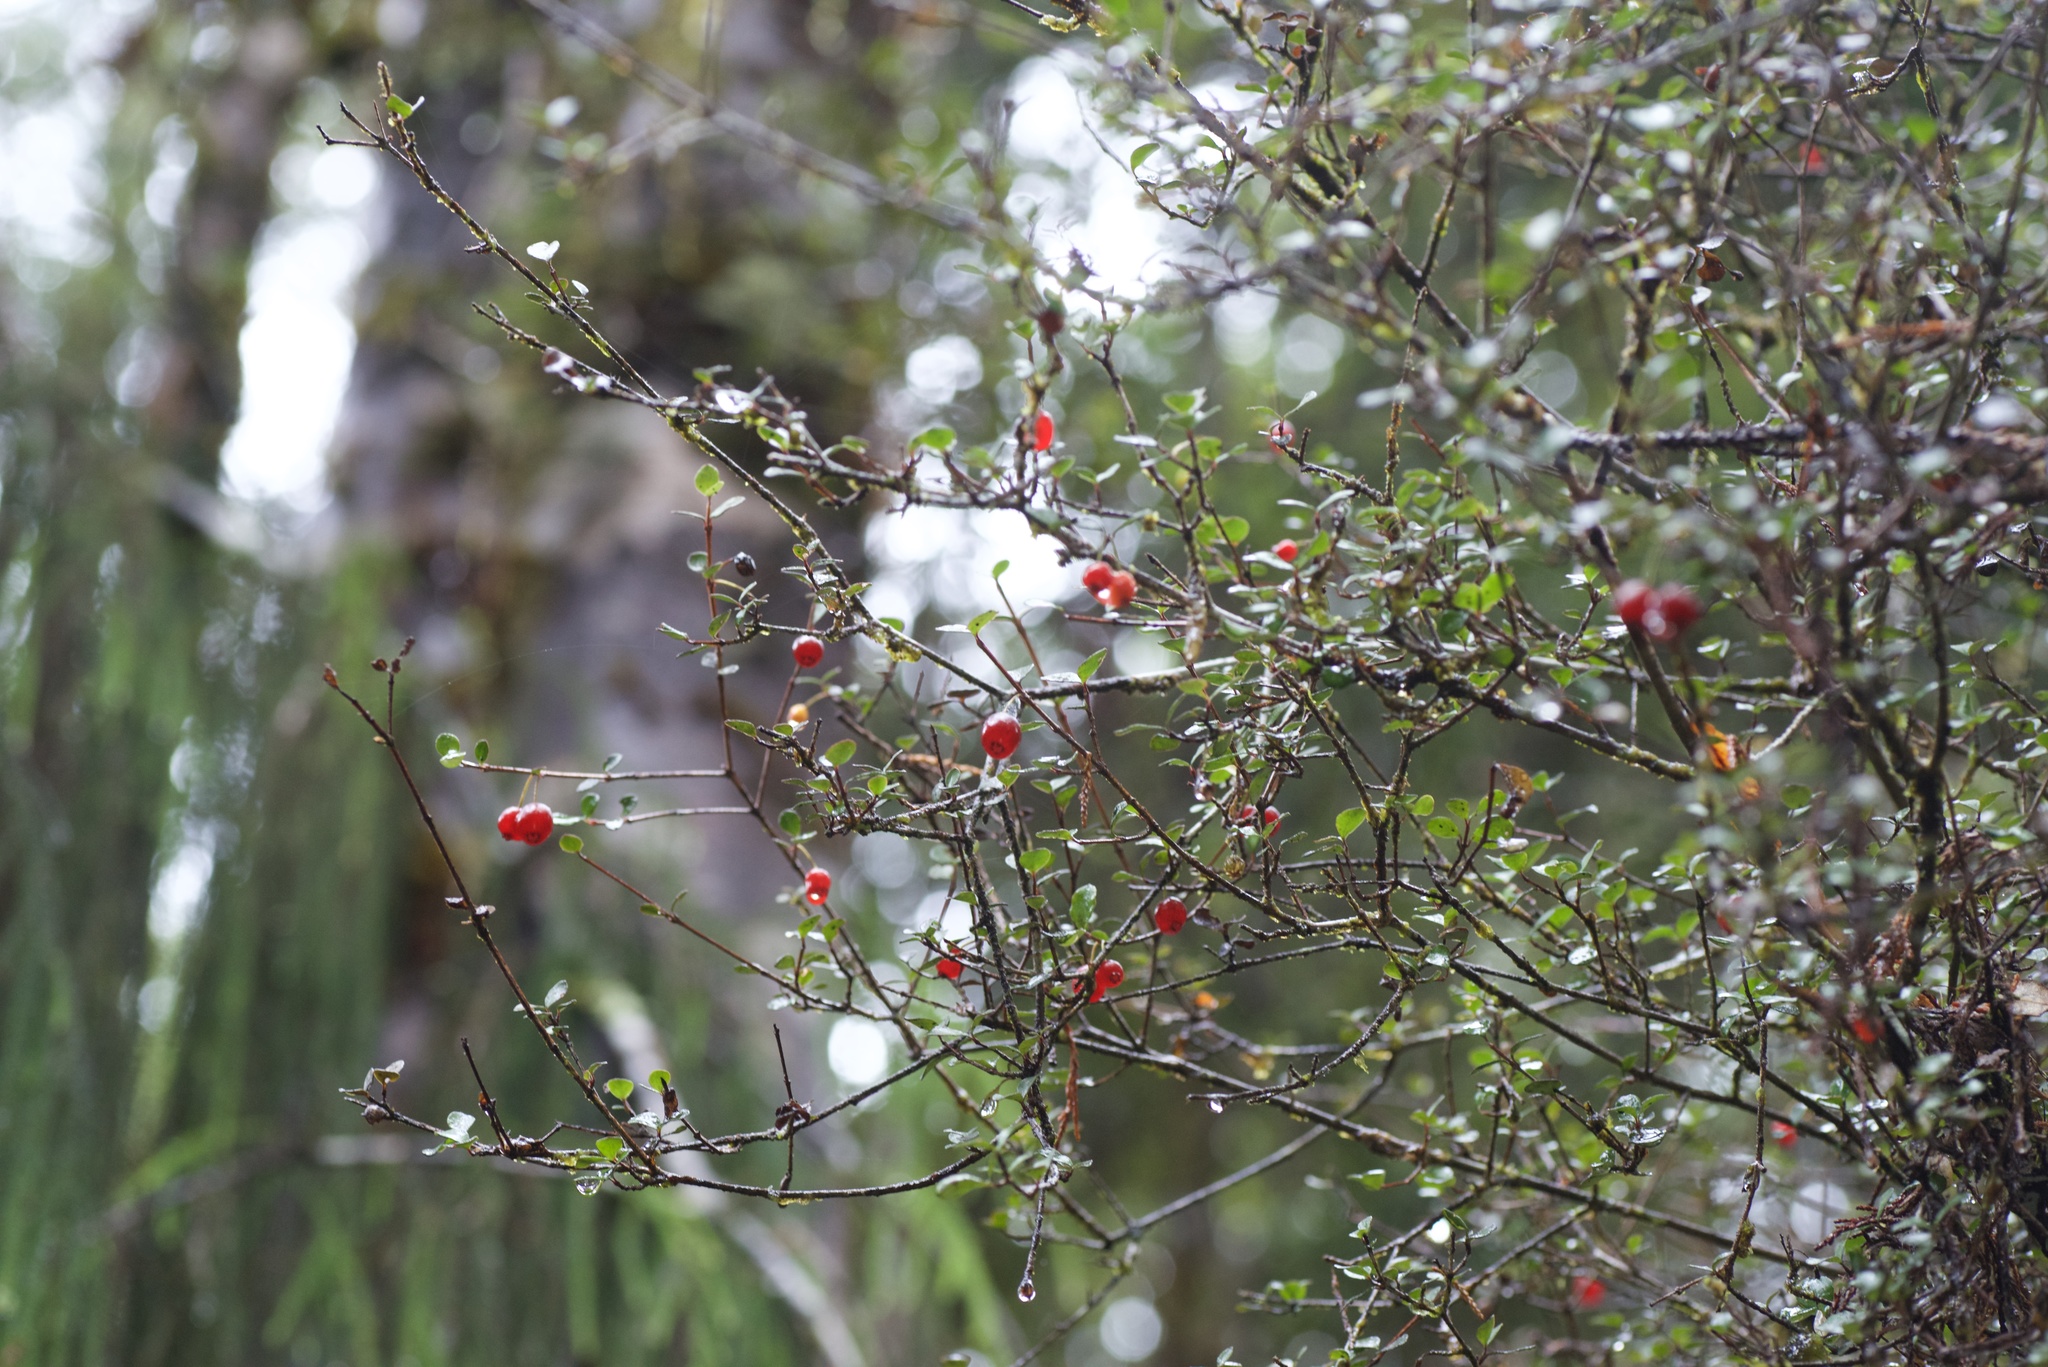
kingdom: Plantae
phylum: Tracheophyta
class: Magnoliopsida
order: Myrtales
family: Myrtaceae
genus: Neomyrtus
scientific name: Neomyrtus pedunculata
